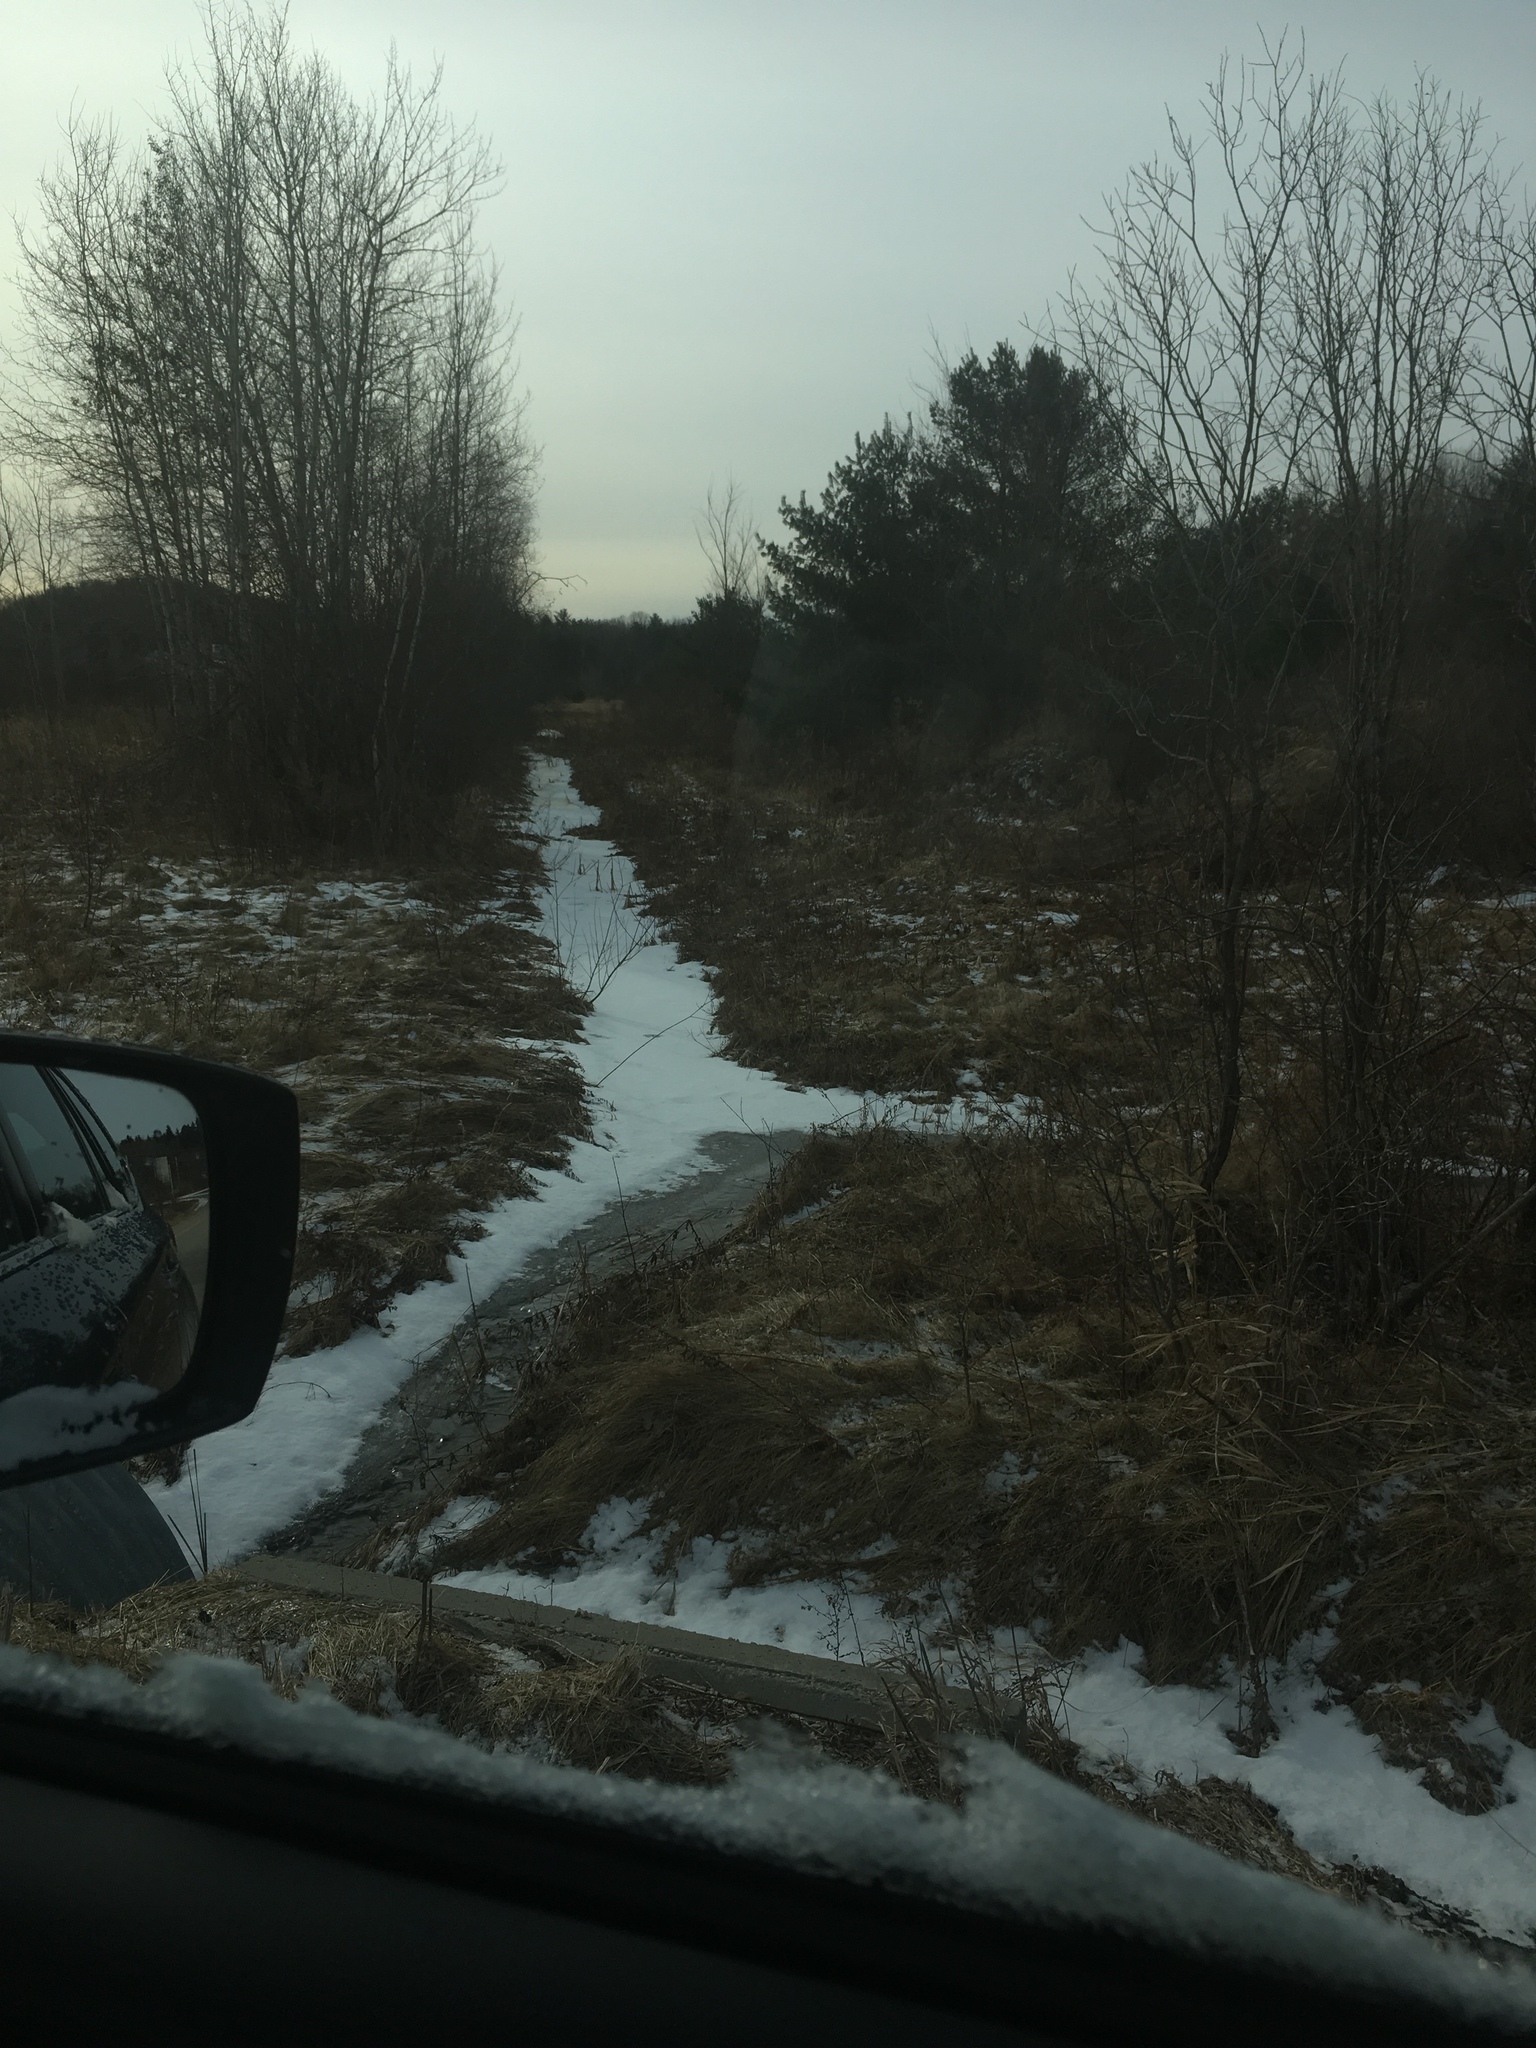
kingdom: Plantae
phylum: Tracheophyta
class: Pinopsida
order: Pinales
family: Pinaceae
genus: Pinus
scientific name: Pinus strobus
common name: Weymouth pine
